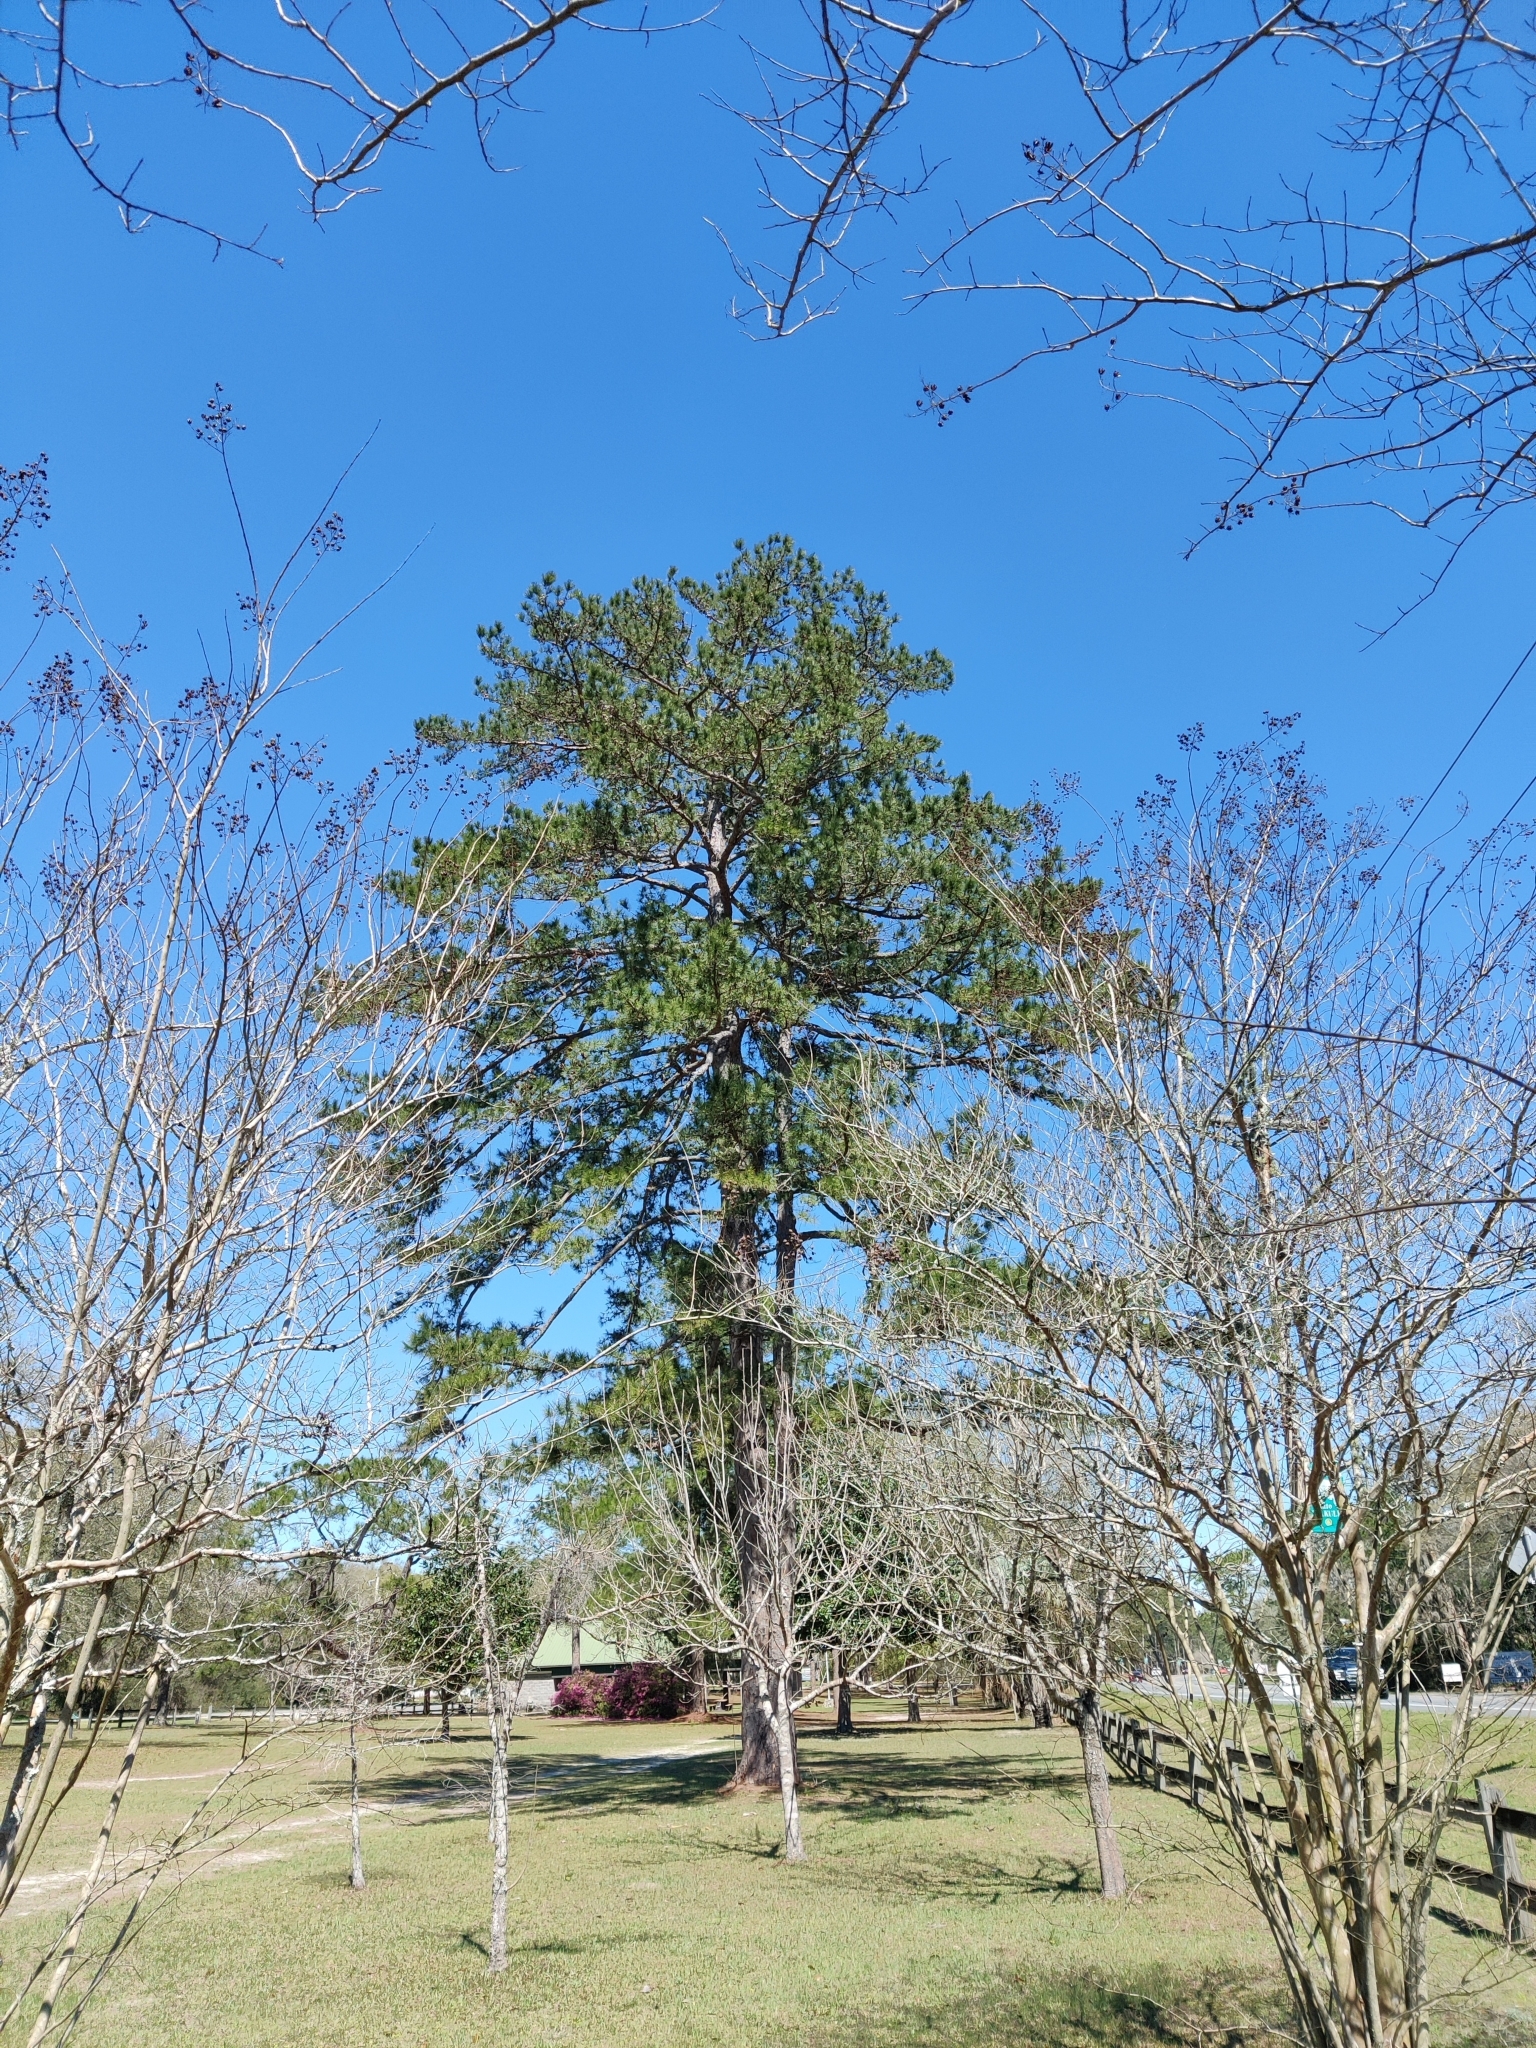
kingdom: Plantae
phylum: Tracheophyta
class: Pinopsida
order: Pinales
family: Pinaceae
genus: Pinus
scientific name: Pinus echinata
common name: Shortleaf pine
